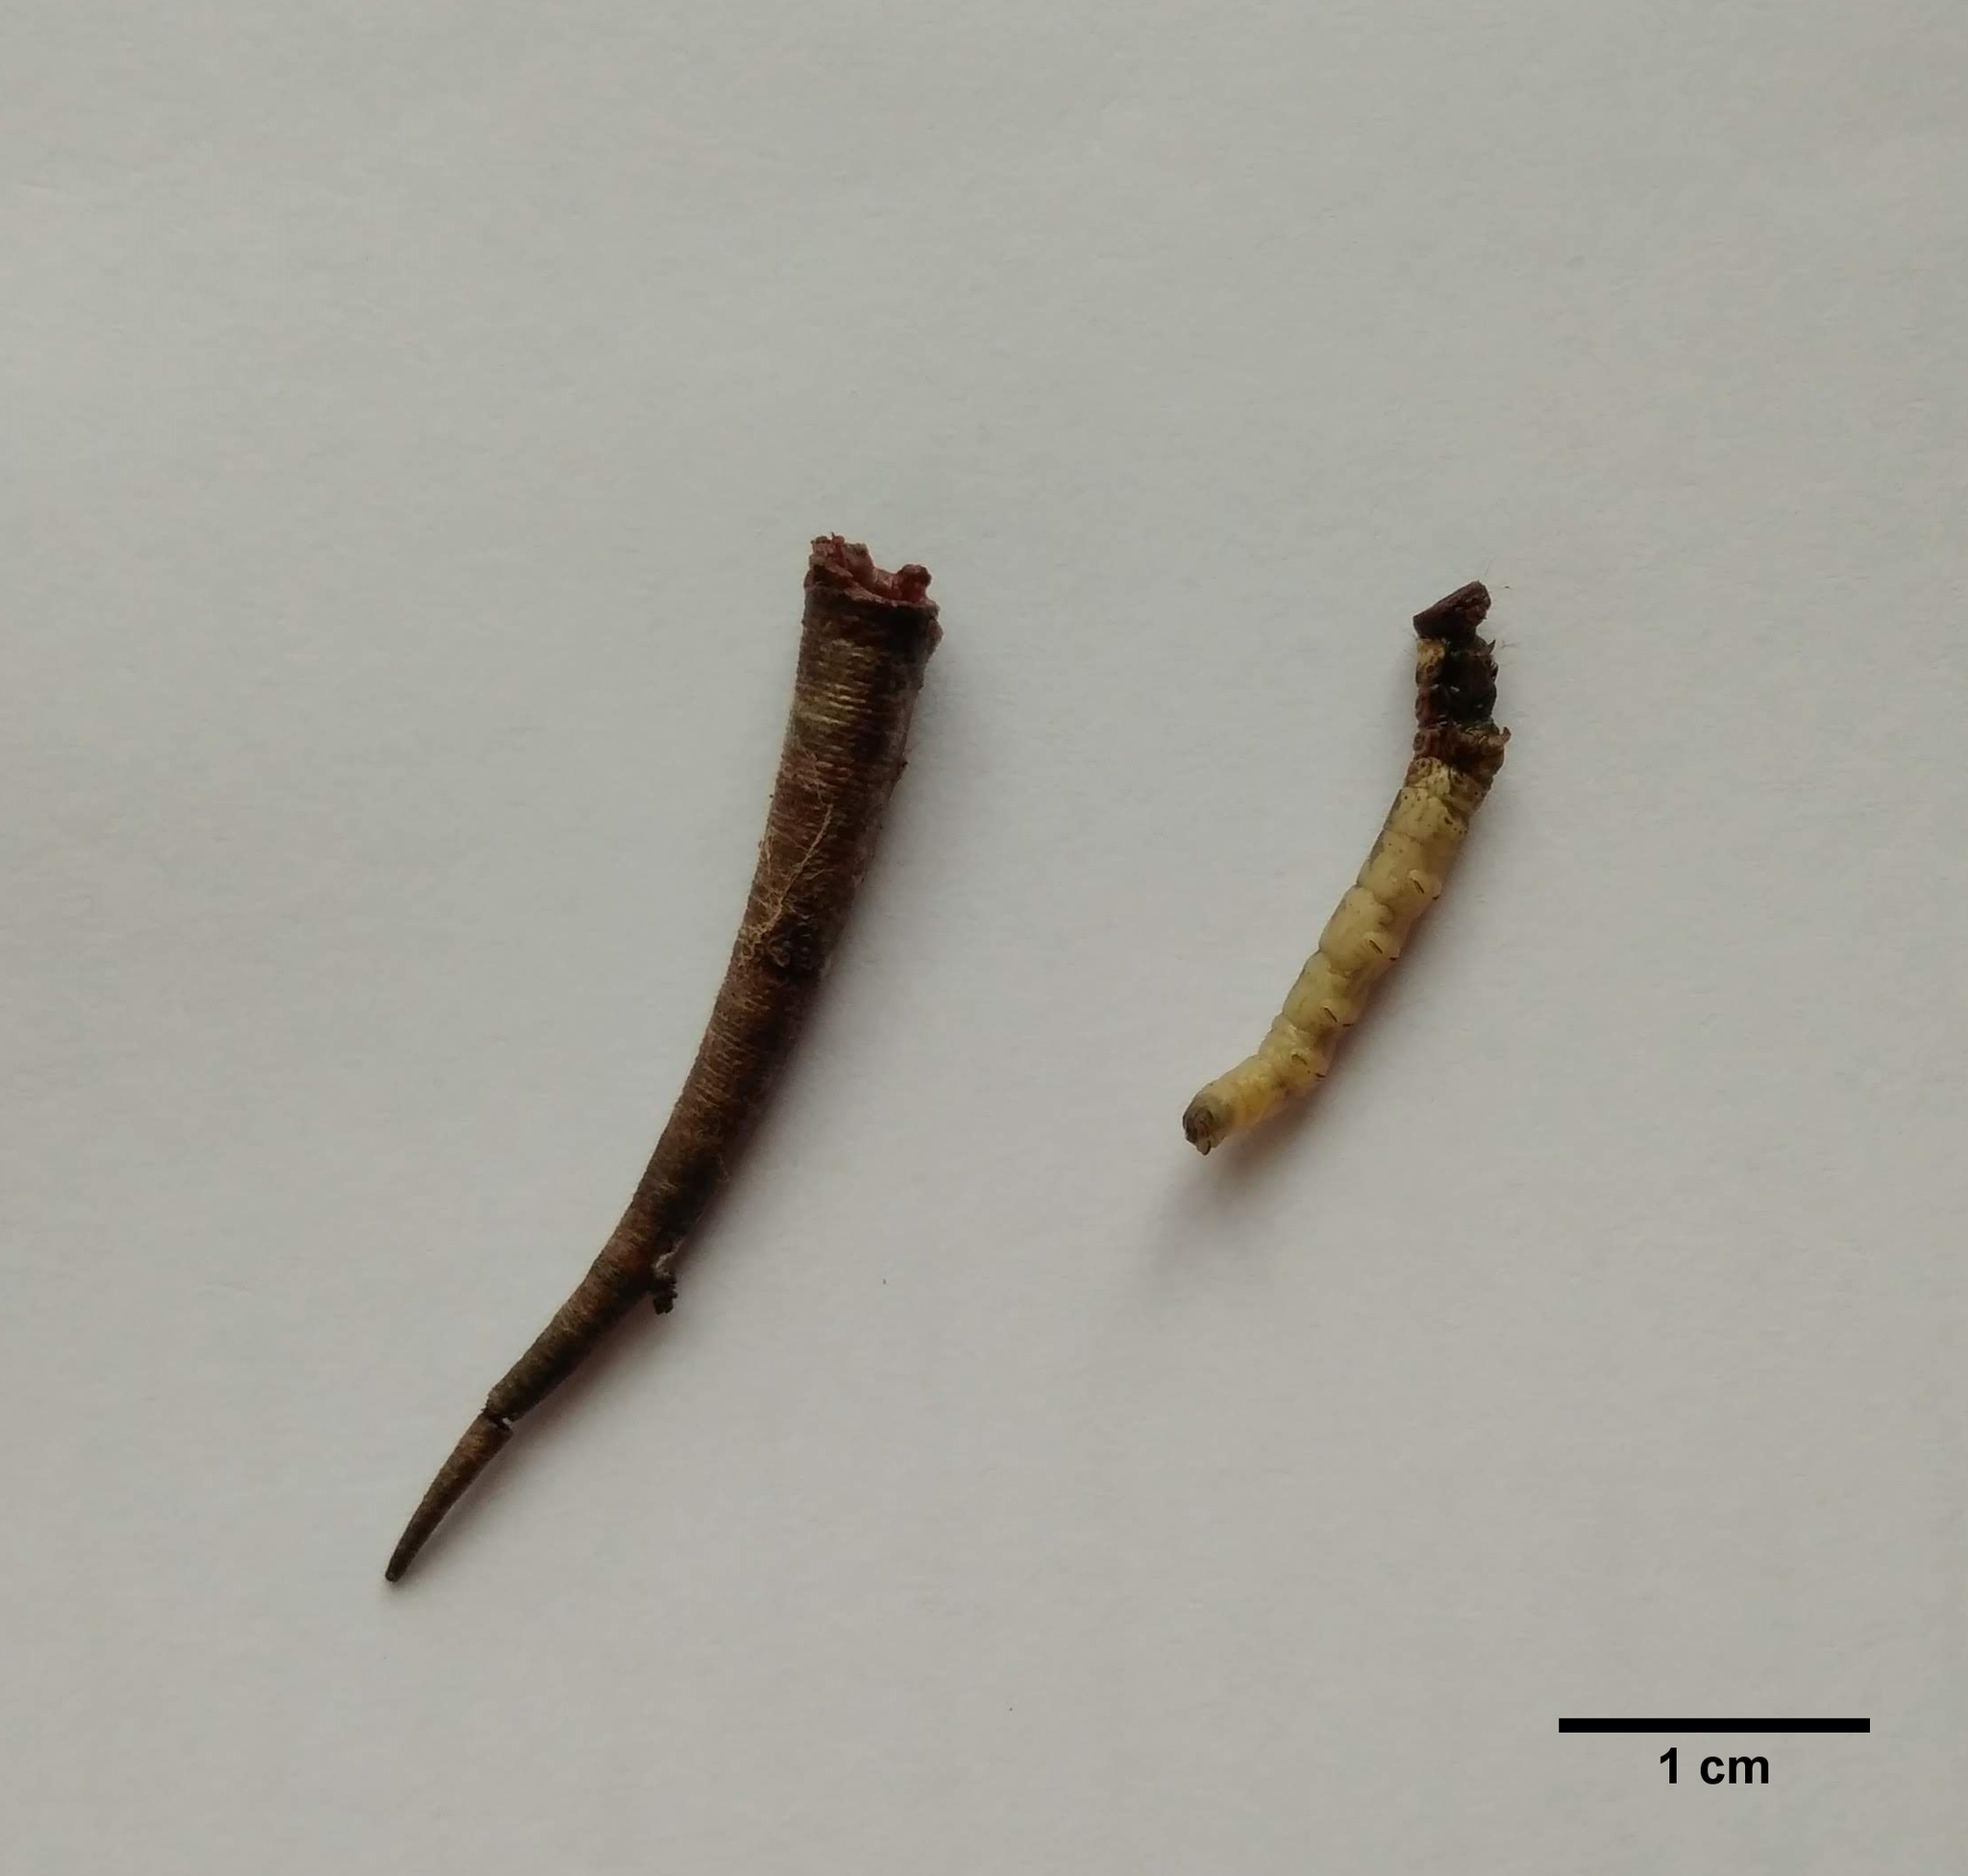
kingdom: Animalia
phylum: Arthropoda
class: Insecta
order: Lepidoptera
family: Oecophoridae
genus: Arctopoda
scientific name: Arctopoda maculosa
